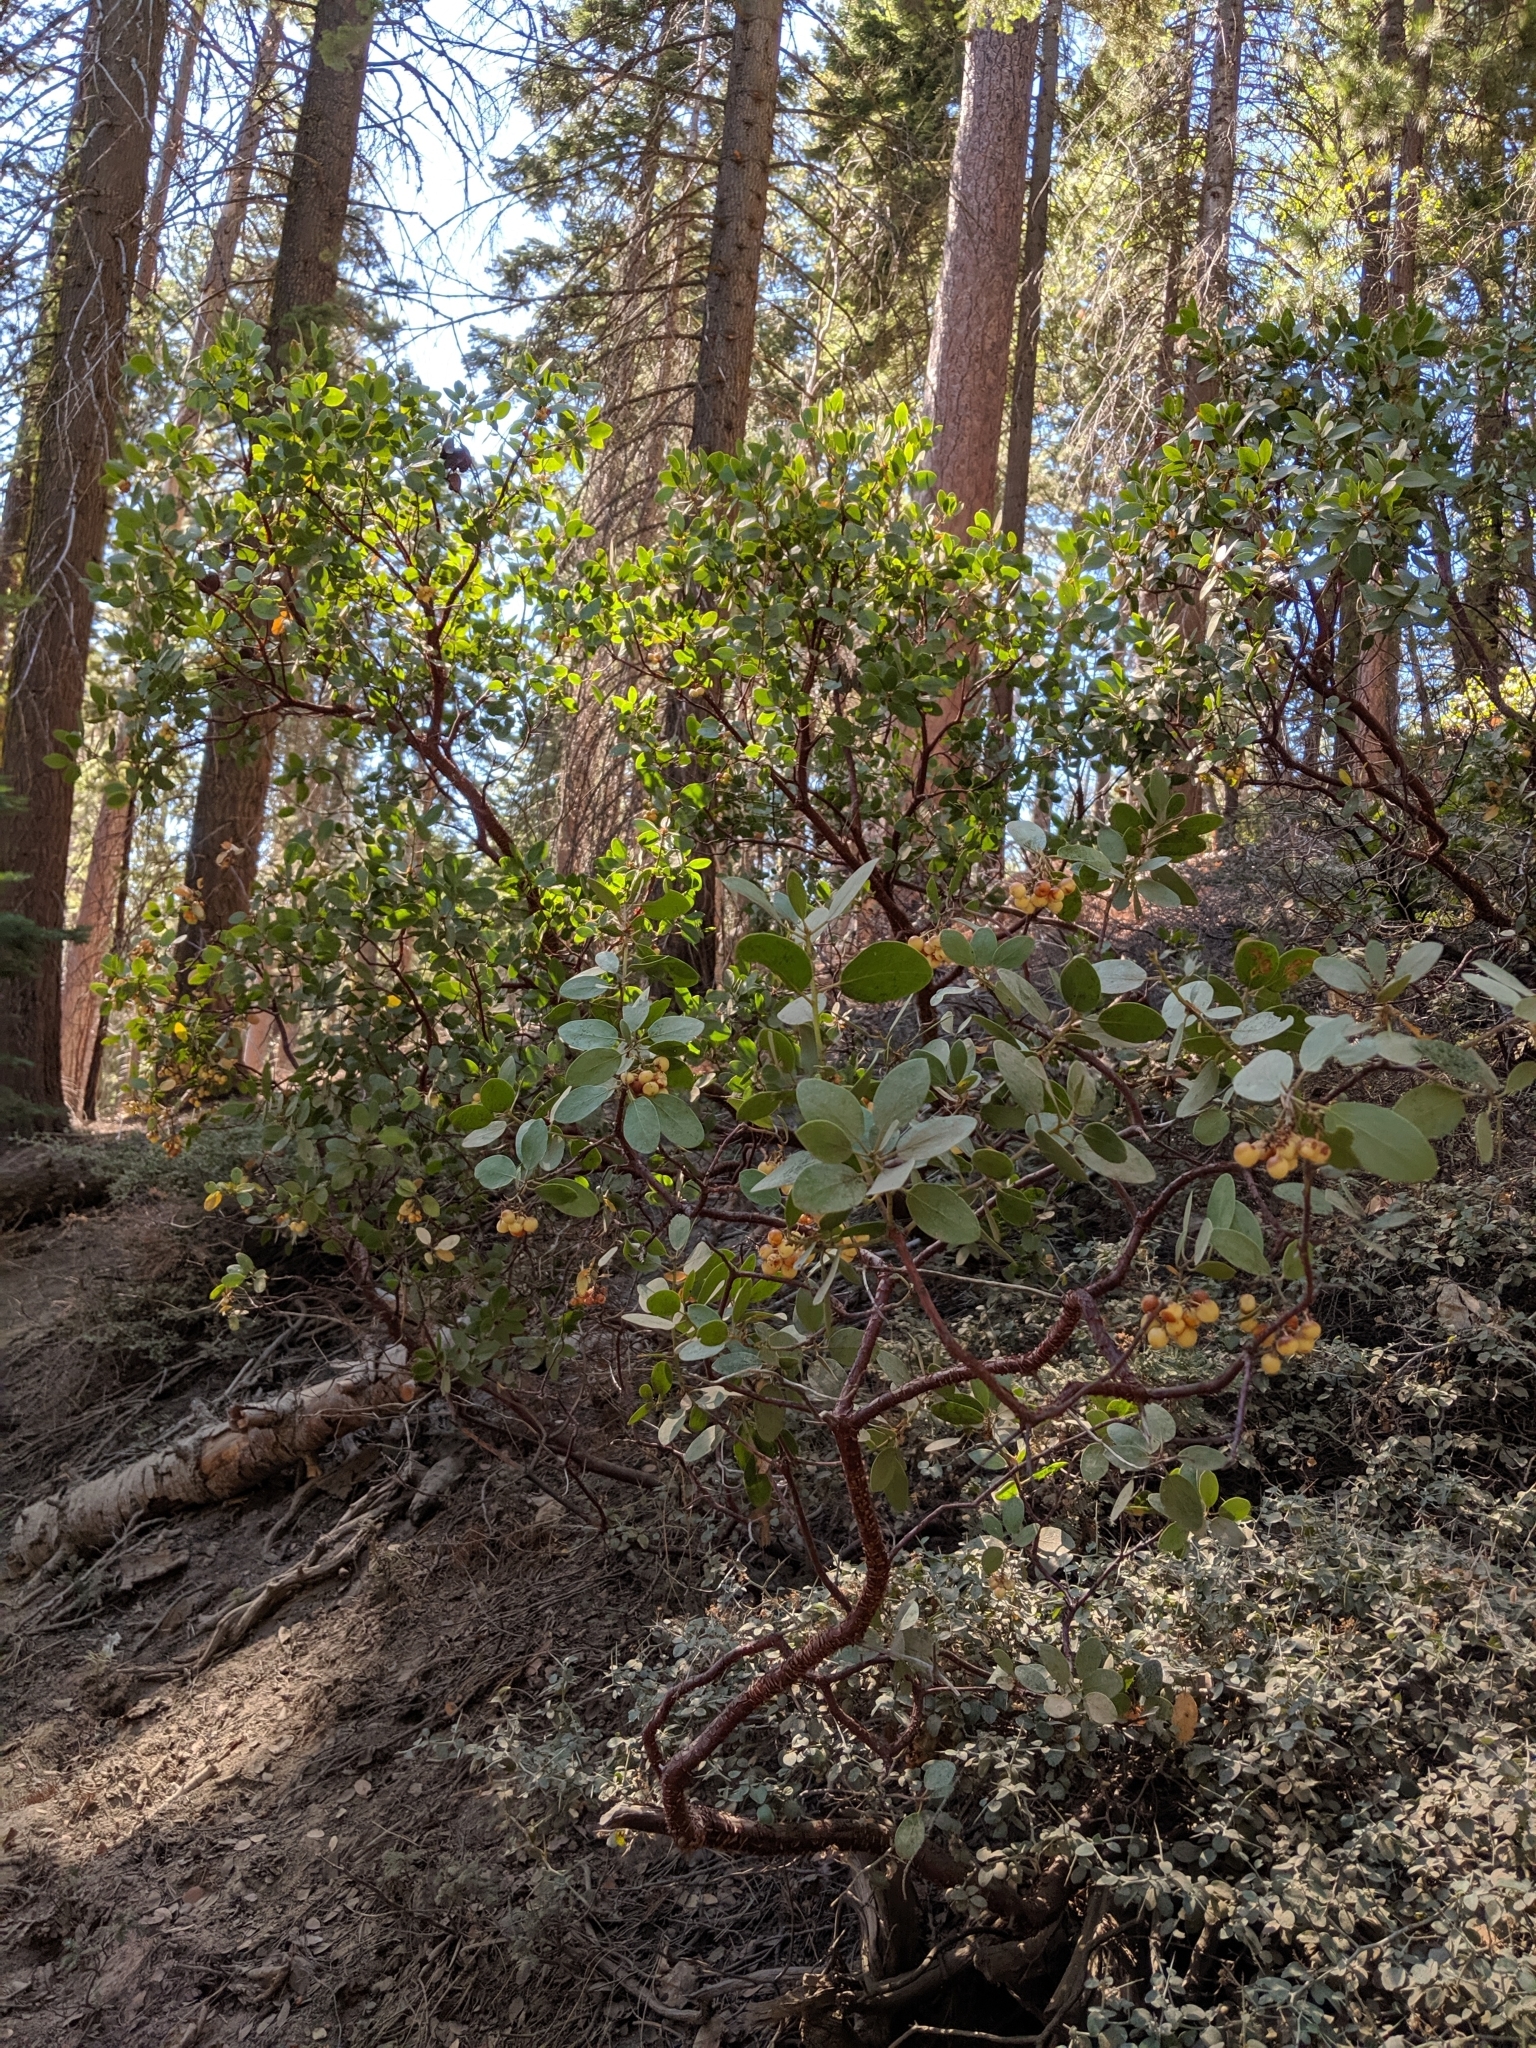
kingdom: Plantae
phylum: Tracheophyta
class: Magnoliopsida
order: Ericales
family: Ericaceae
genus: Arctostaphylos
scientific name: Arctostaphylos patula
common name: Green-leaf manzanita
